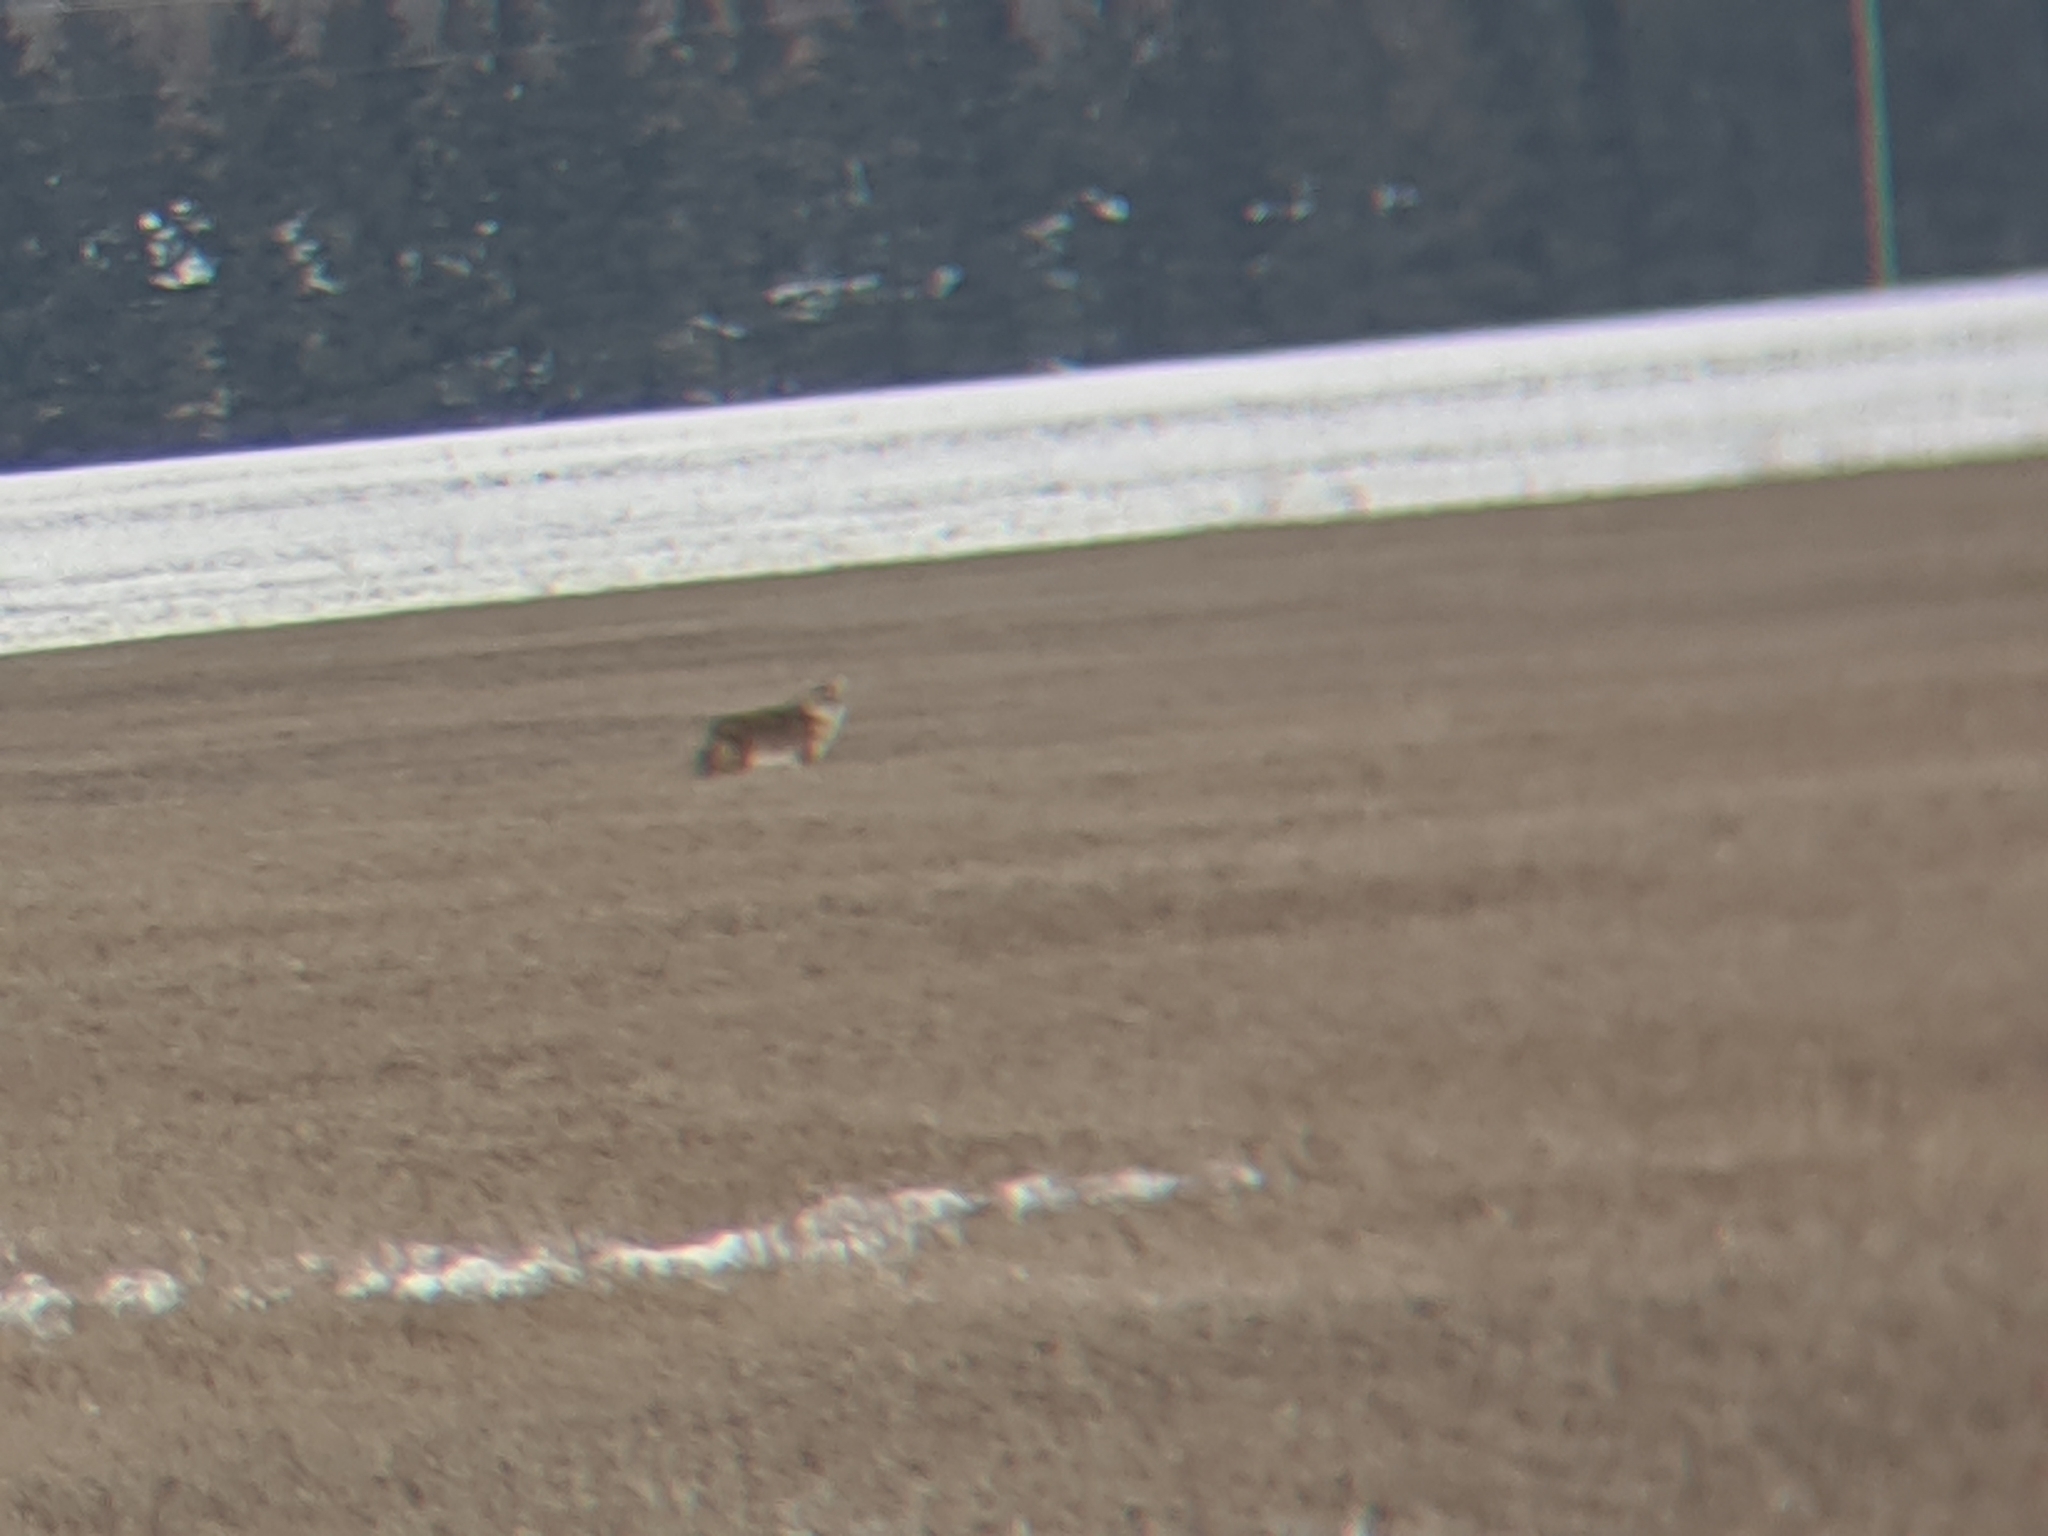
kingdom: Animalia
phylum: Chordata
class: Mammalia
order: Carnivora
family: Canidae
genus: Canis
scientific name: Canis latrans
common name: Coyote
